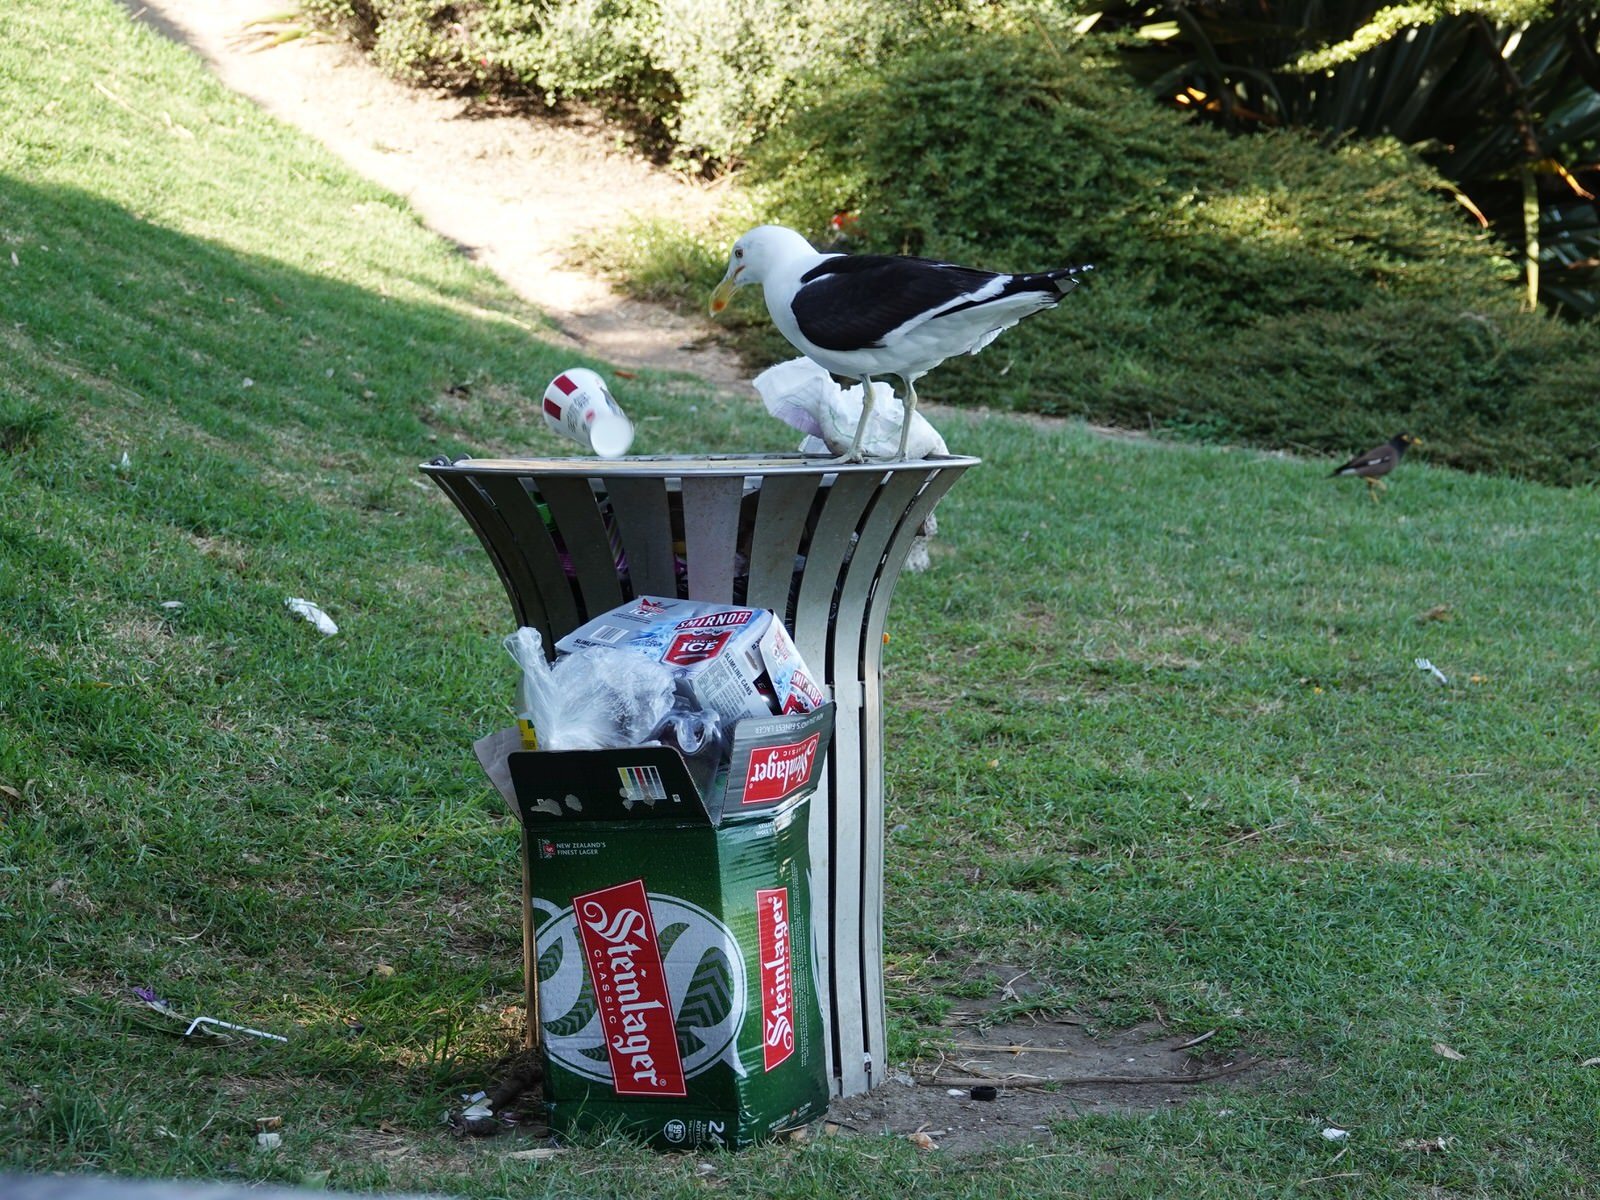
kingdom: Animalia
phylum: Chordata
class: Aves
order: Charadriiformes
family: Laridae
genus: Larus
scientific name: Larus dominicanus
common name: Kelp gull
